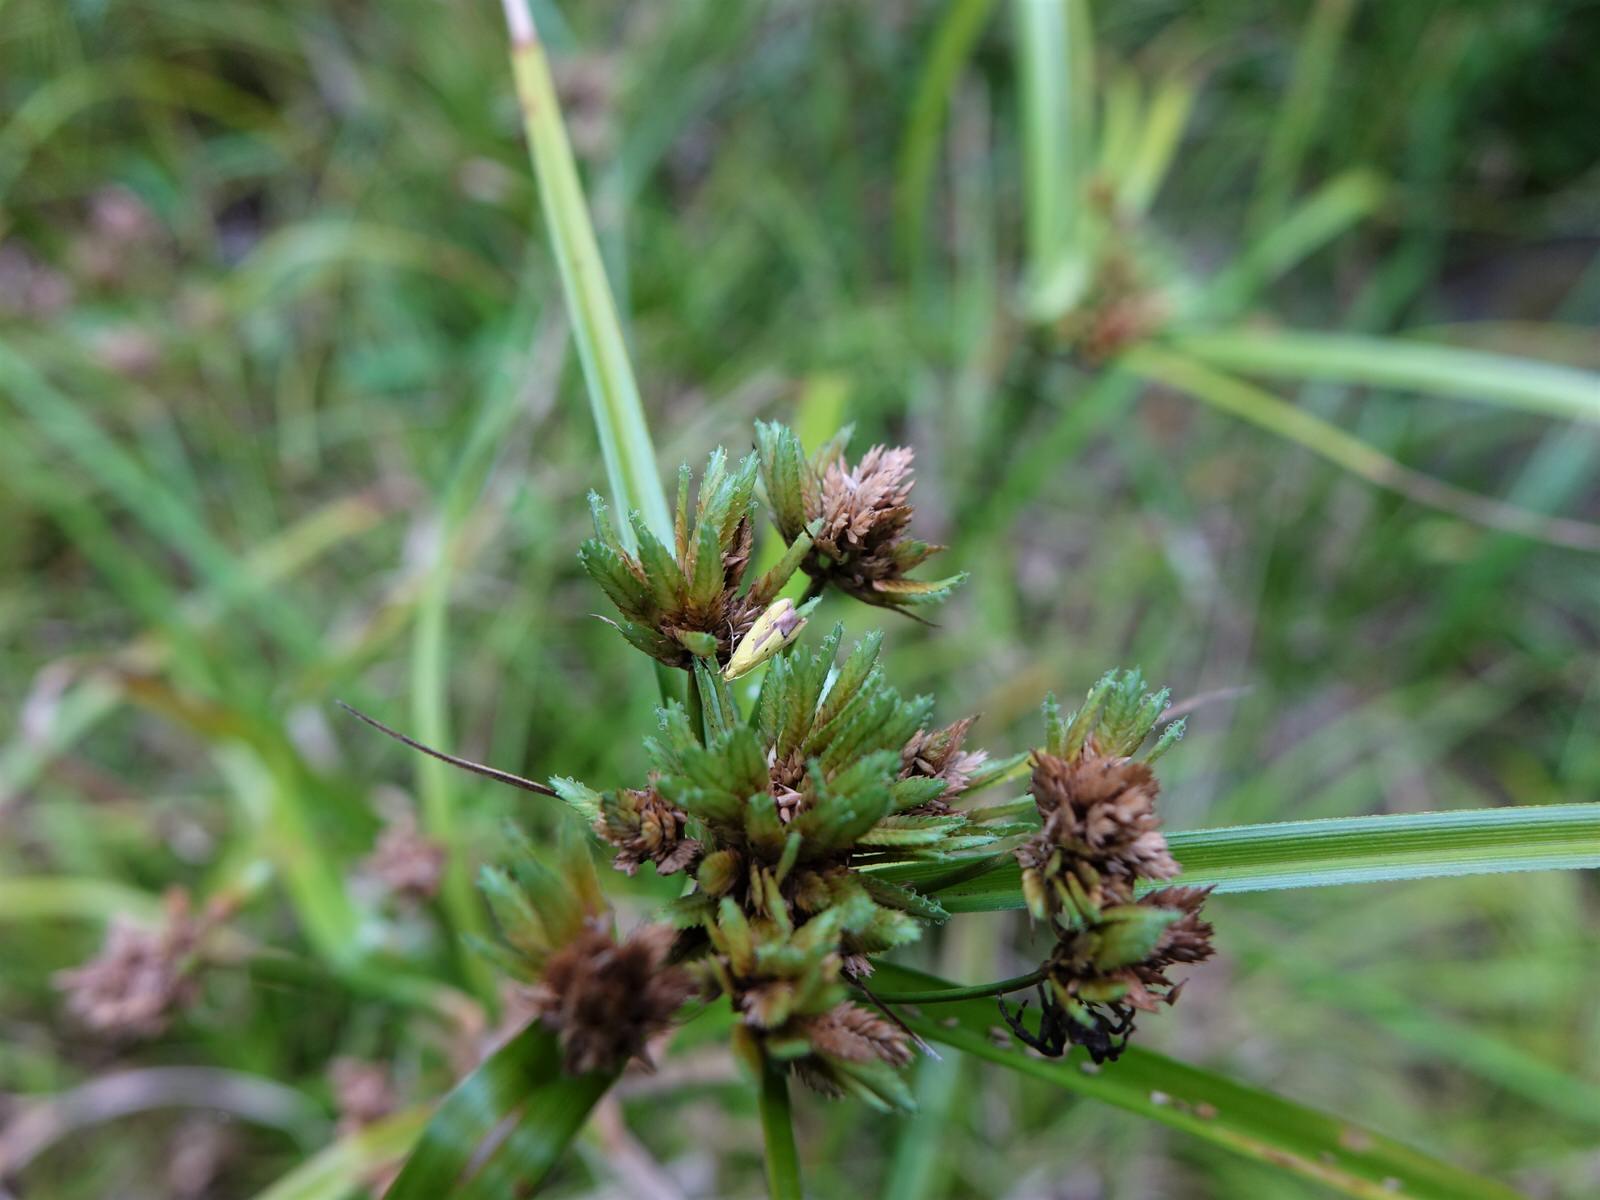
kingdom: Animalia
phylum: Arthropoda
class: Insecta
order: Lepidoptera
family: Oecophoridae
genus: Gymnobathra
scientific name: Gymnobathra flavidella
